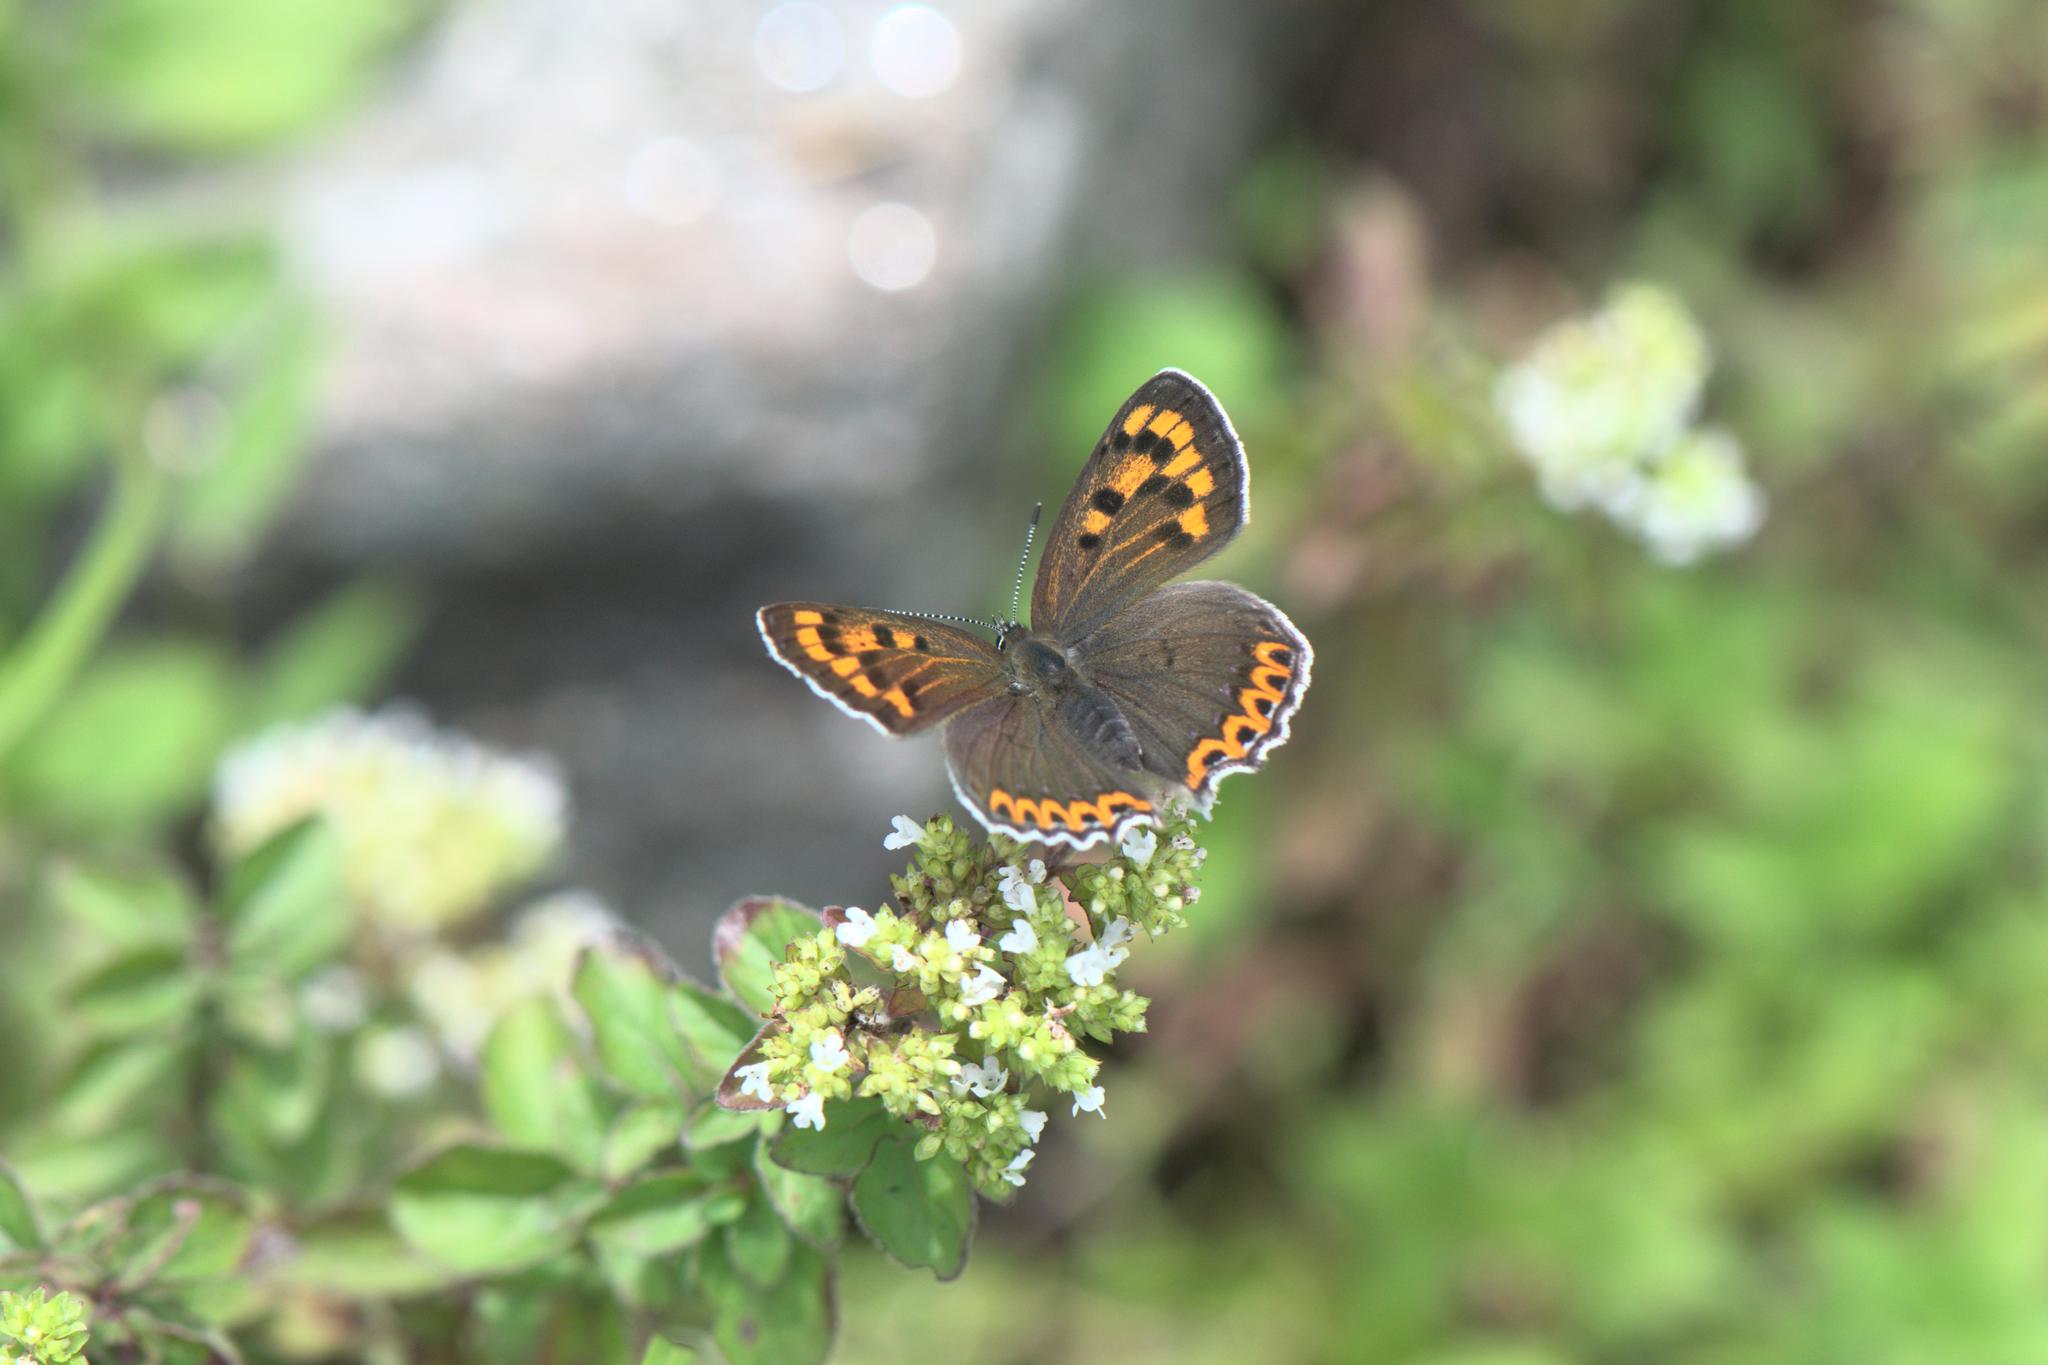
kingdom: Animalia
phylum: Arthropoda
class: Insecta
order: Lepidoptera
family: Lycaenidae
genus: Lycaena
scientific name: Lycaena panava
